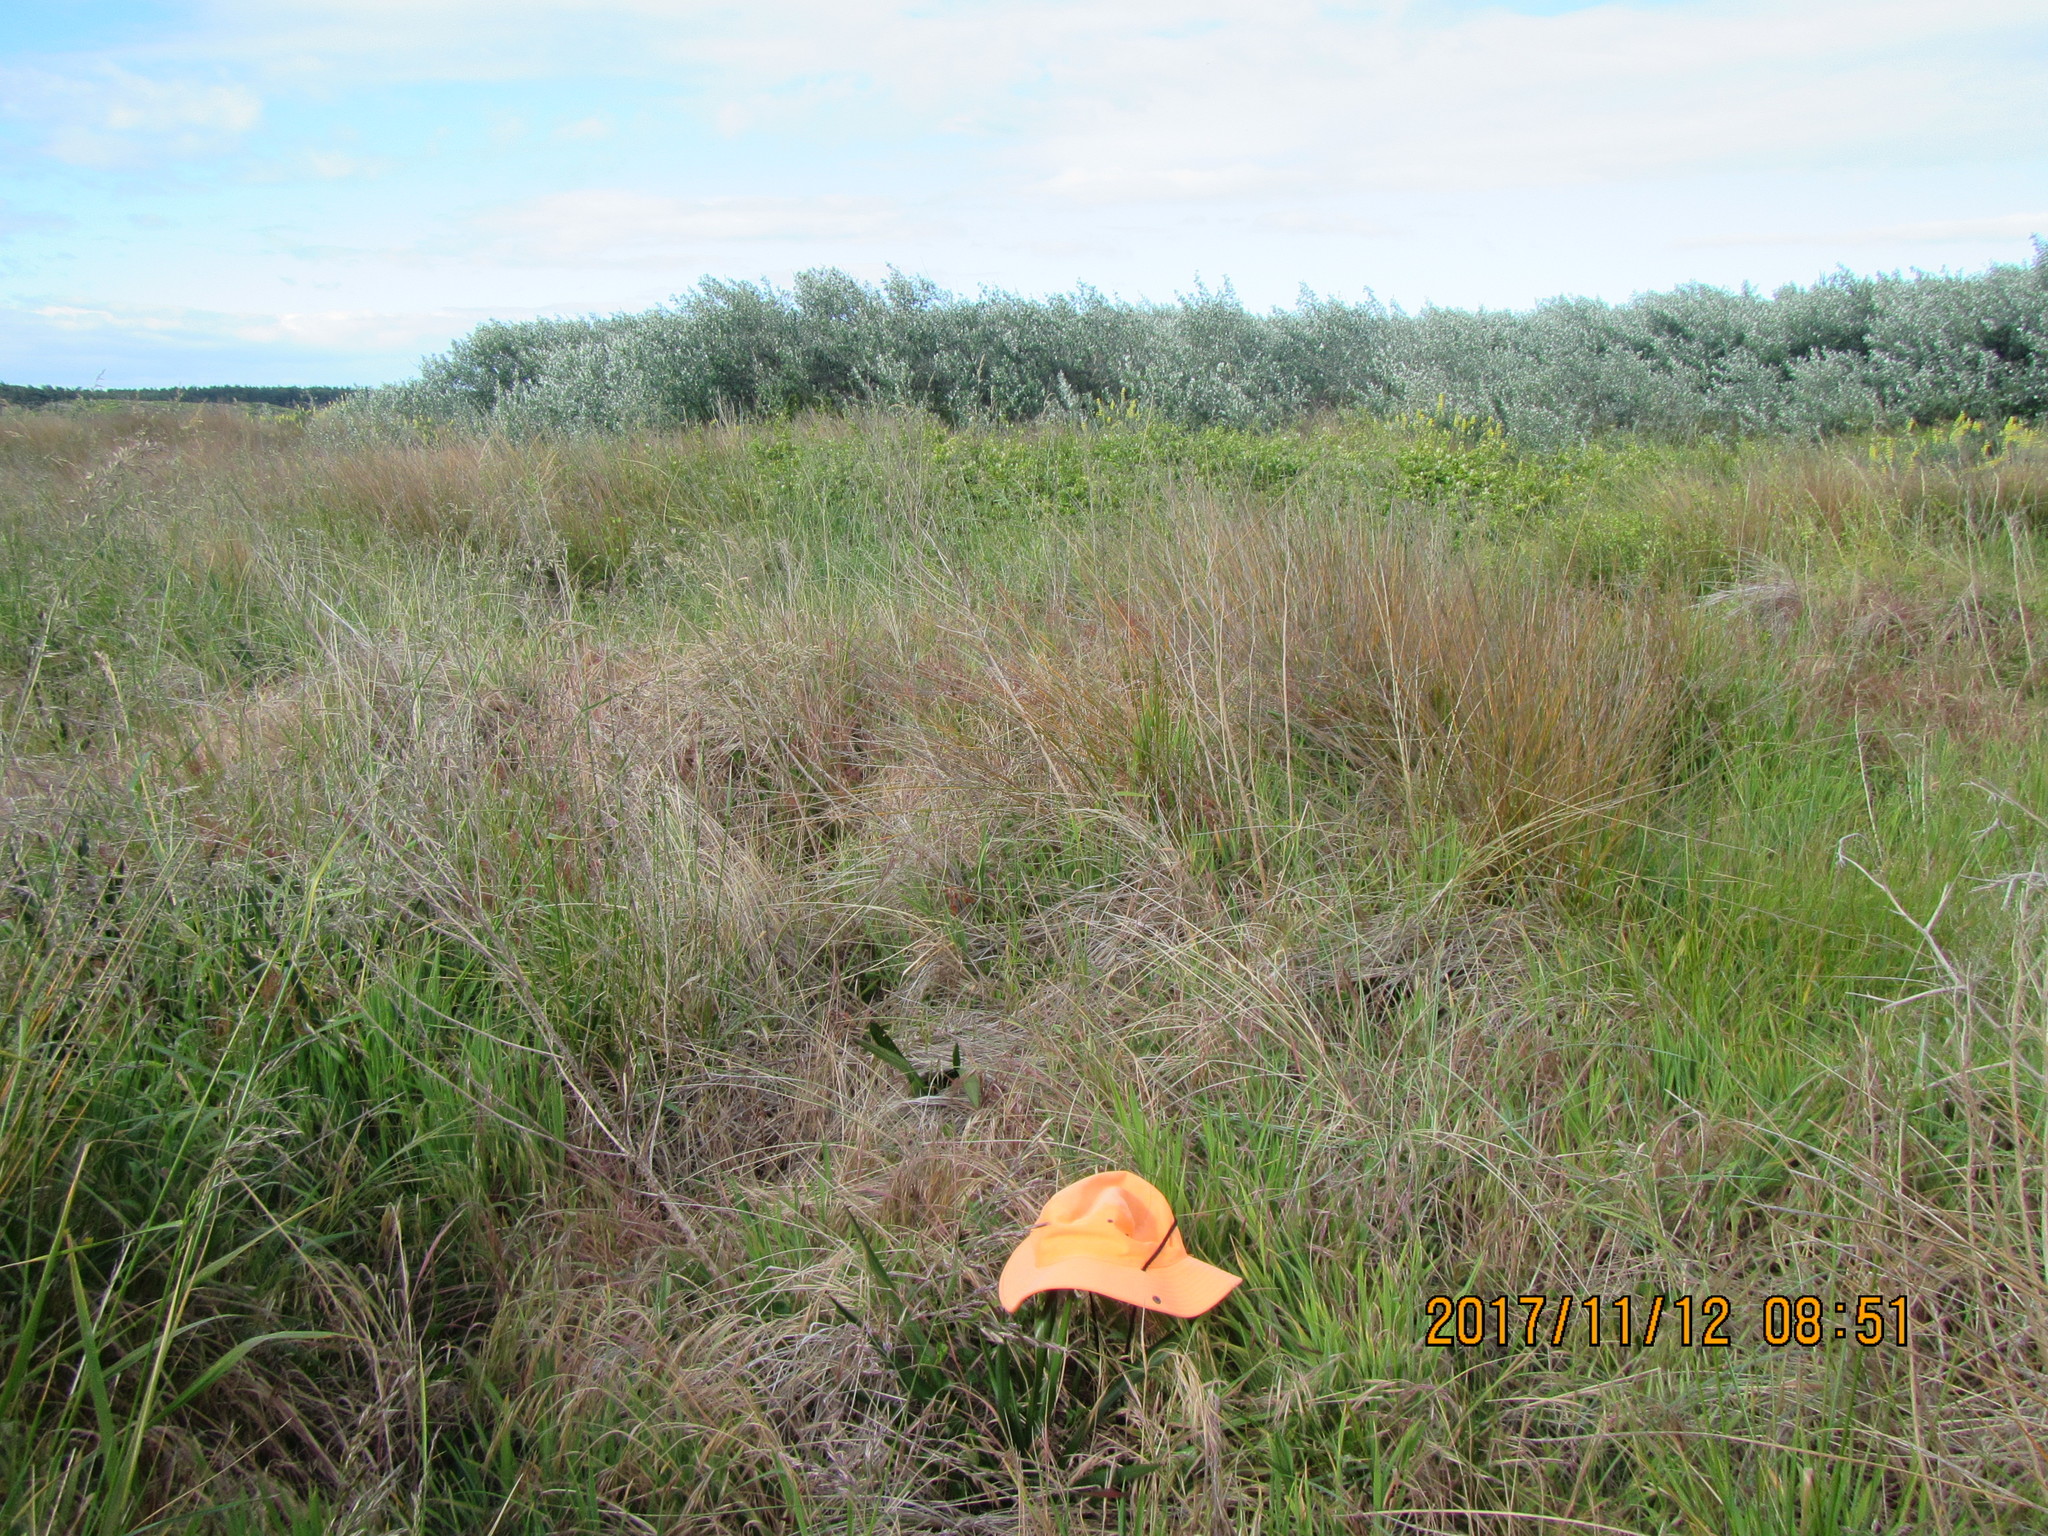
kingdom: Plantae
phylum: Tracheophyta
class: Magnoliopsida
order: Malpighiales
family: Salicaceae
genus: Populus
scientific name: Populus alba
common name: White poplar
